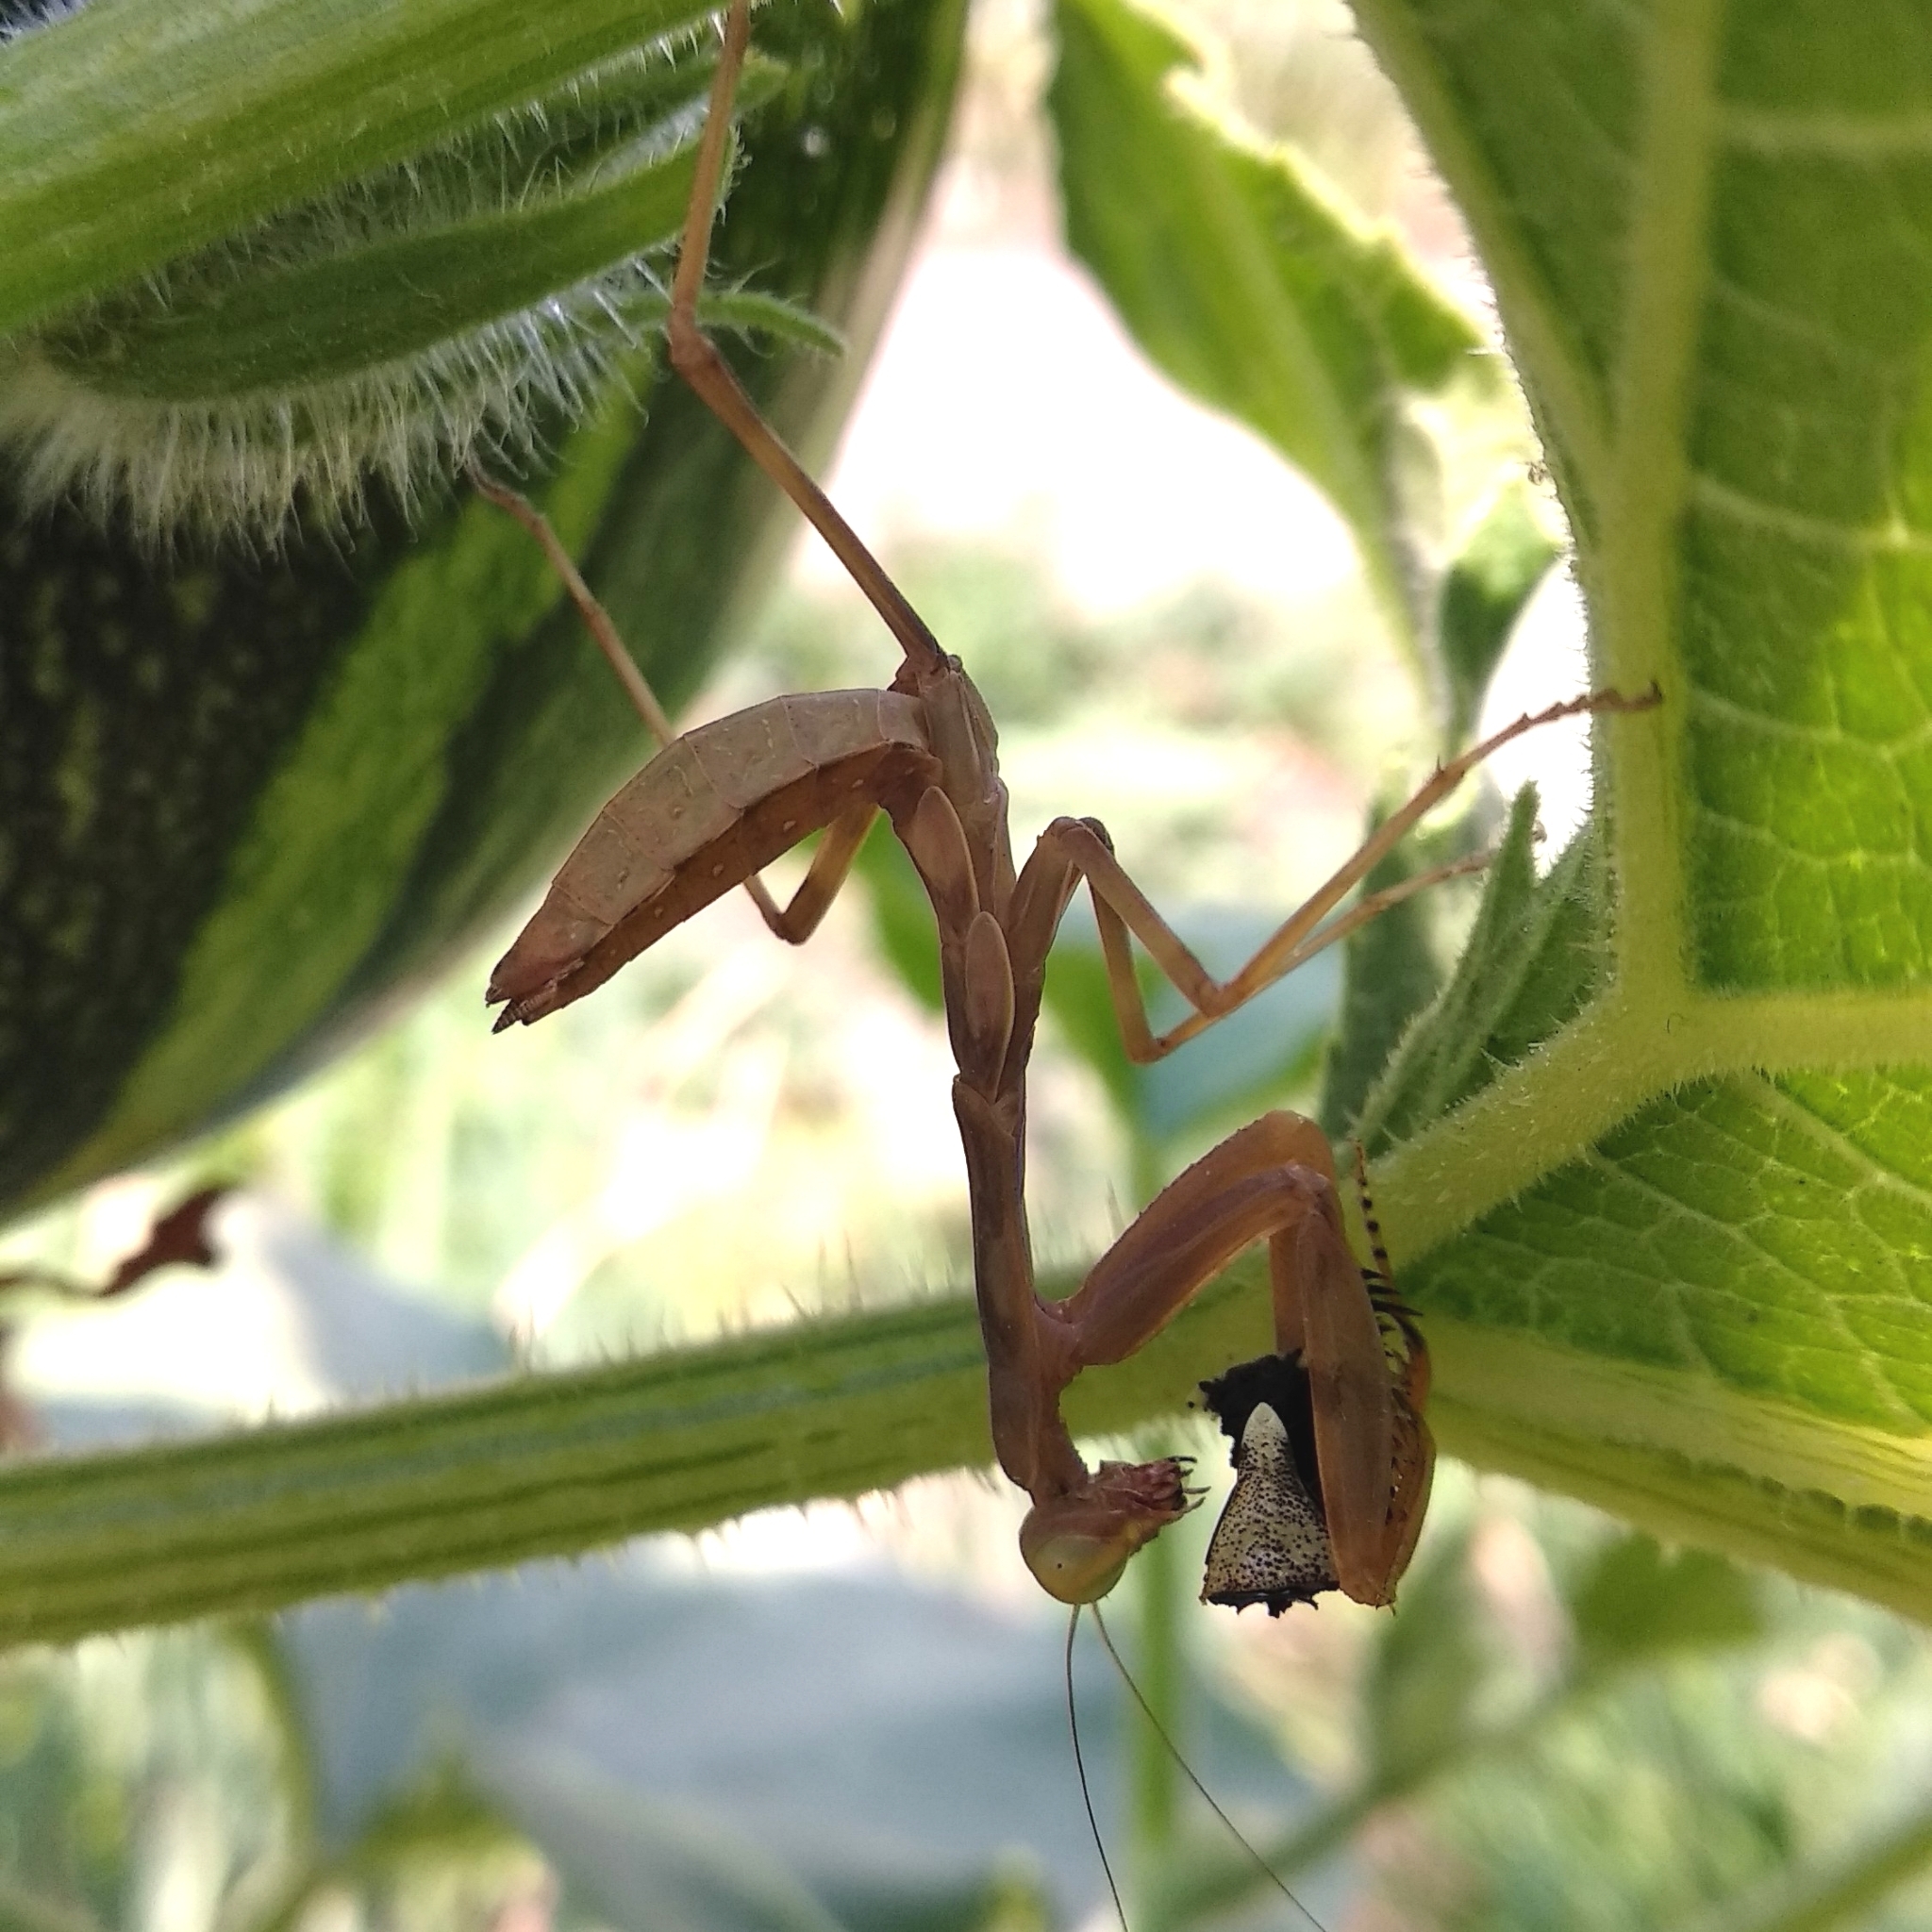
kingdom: Animalia
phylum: Arthropoda
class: Insecta
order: Mantodea
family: Mantidae
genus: Hierodula
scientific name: Hierodula tenuidentata
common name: Giant asian mantis
